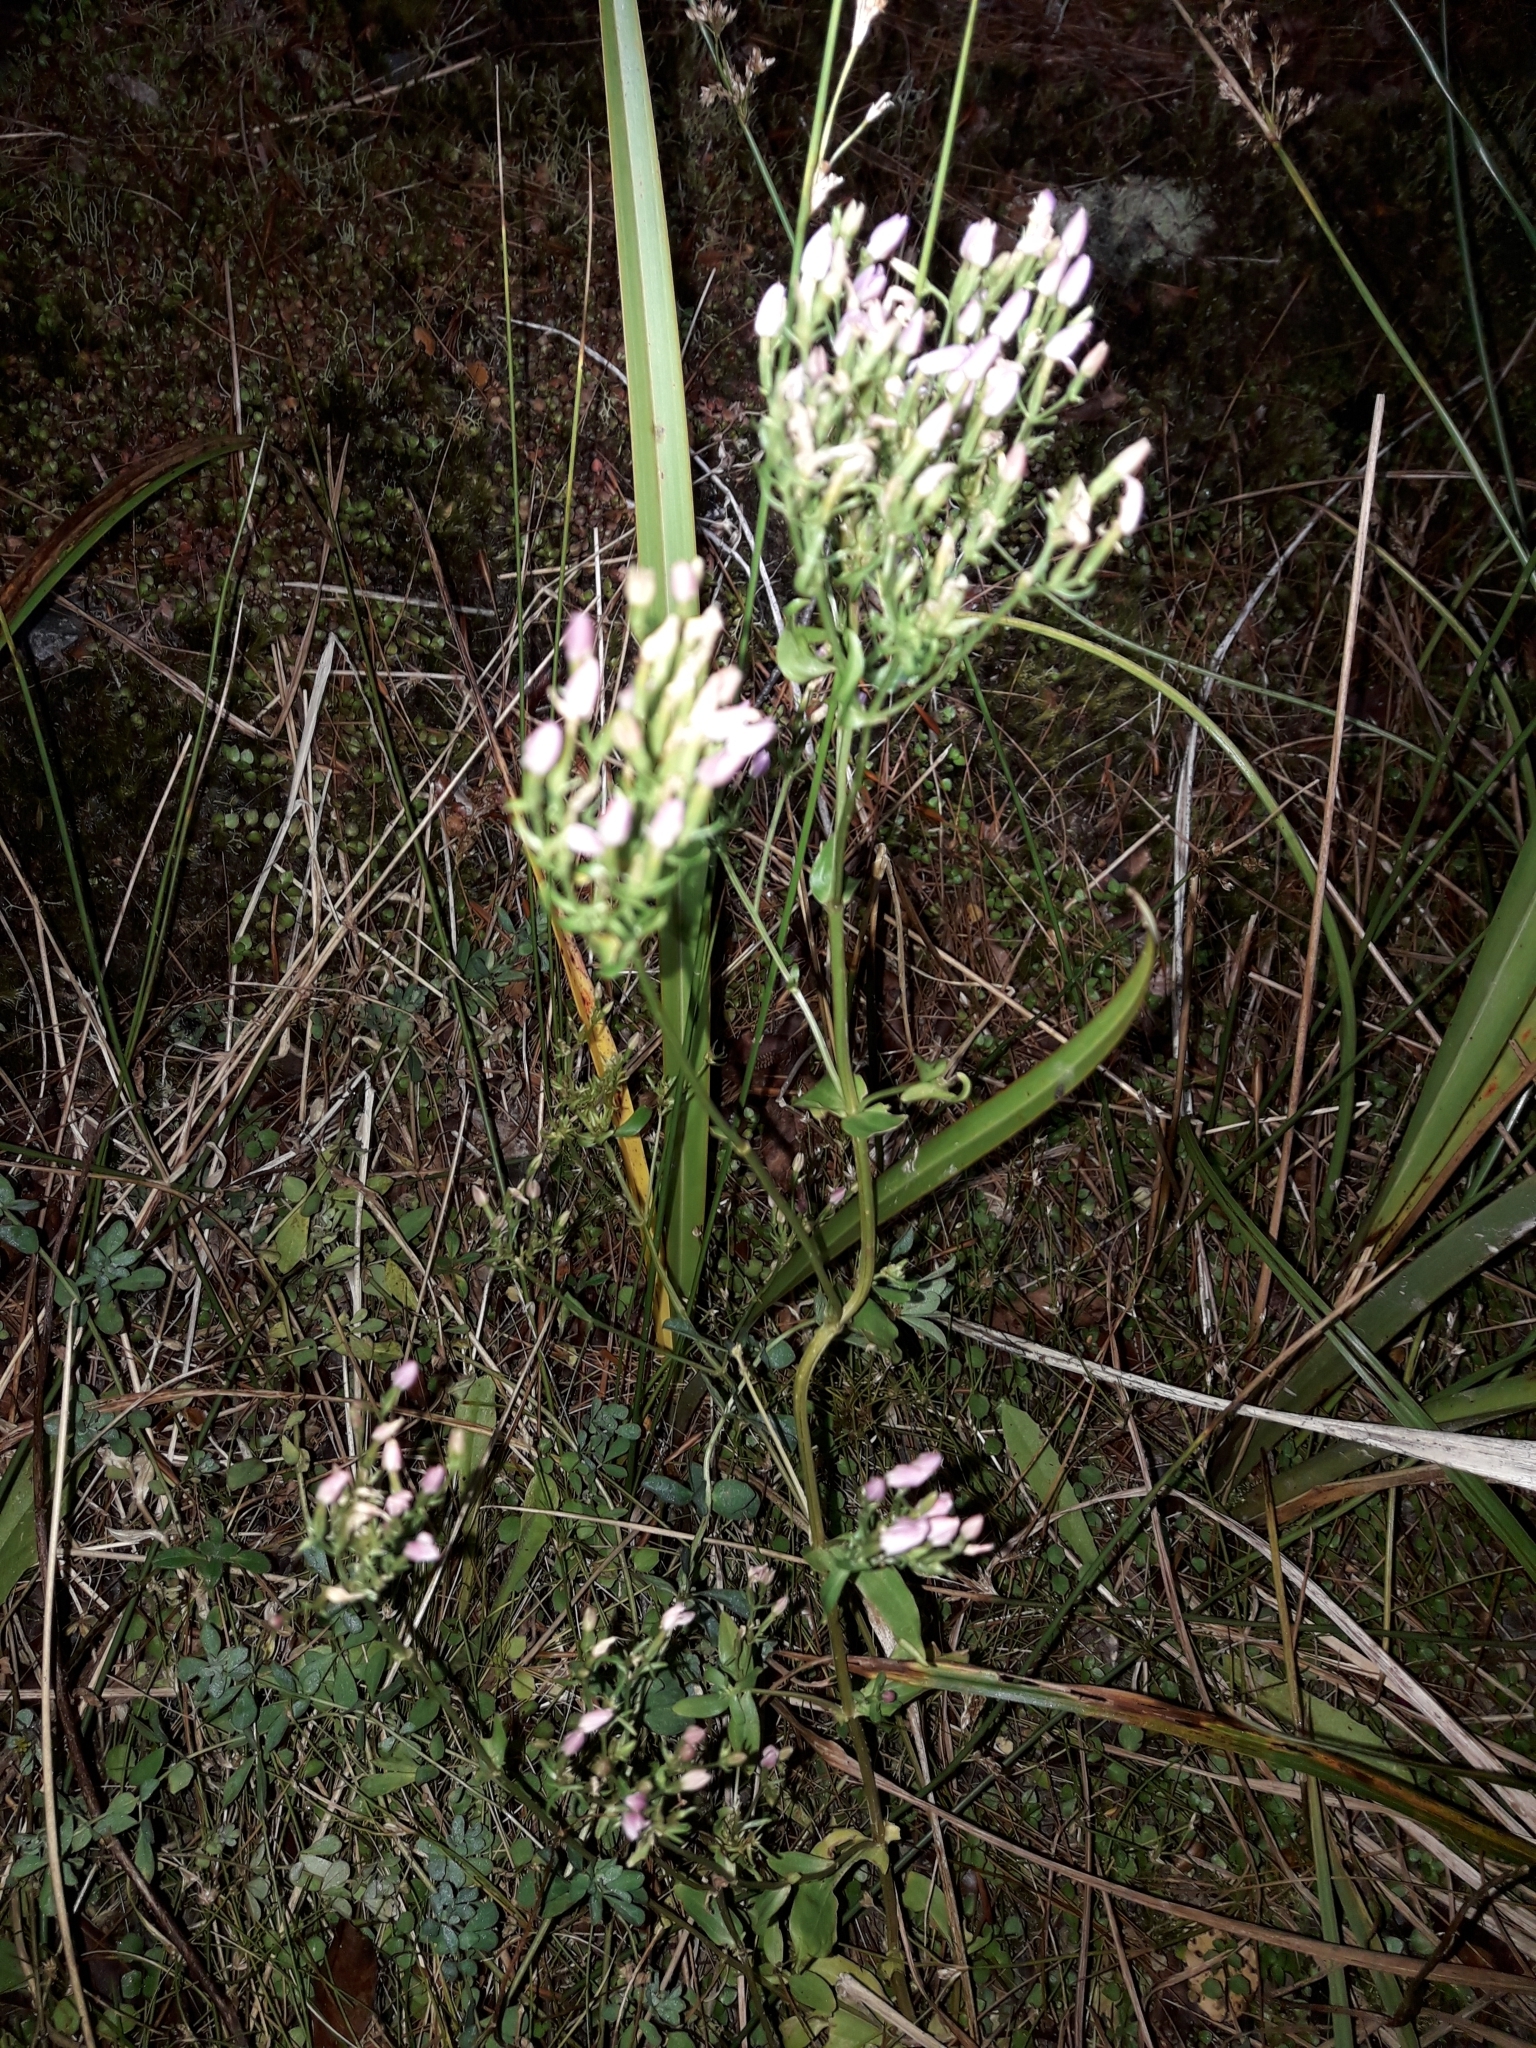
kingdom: Plantae
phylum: Tracheophyta
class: Magnoliopsida
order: Gentianales
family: Gentianaceae
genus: Centaurium
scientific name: Centaurium erythraea
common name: Common centaury
